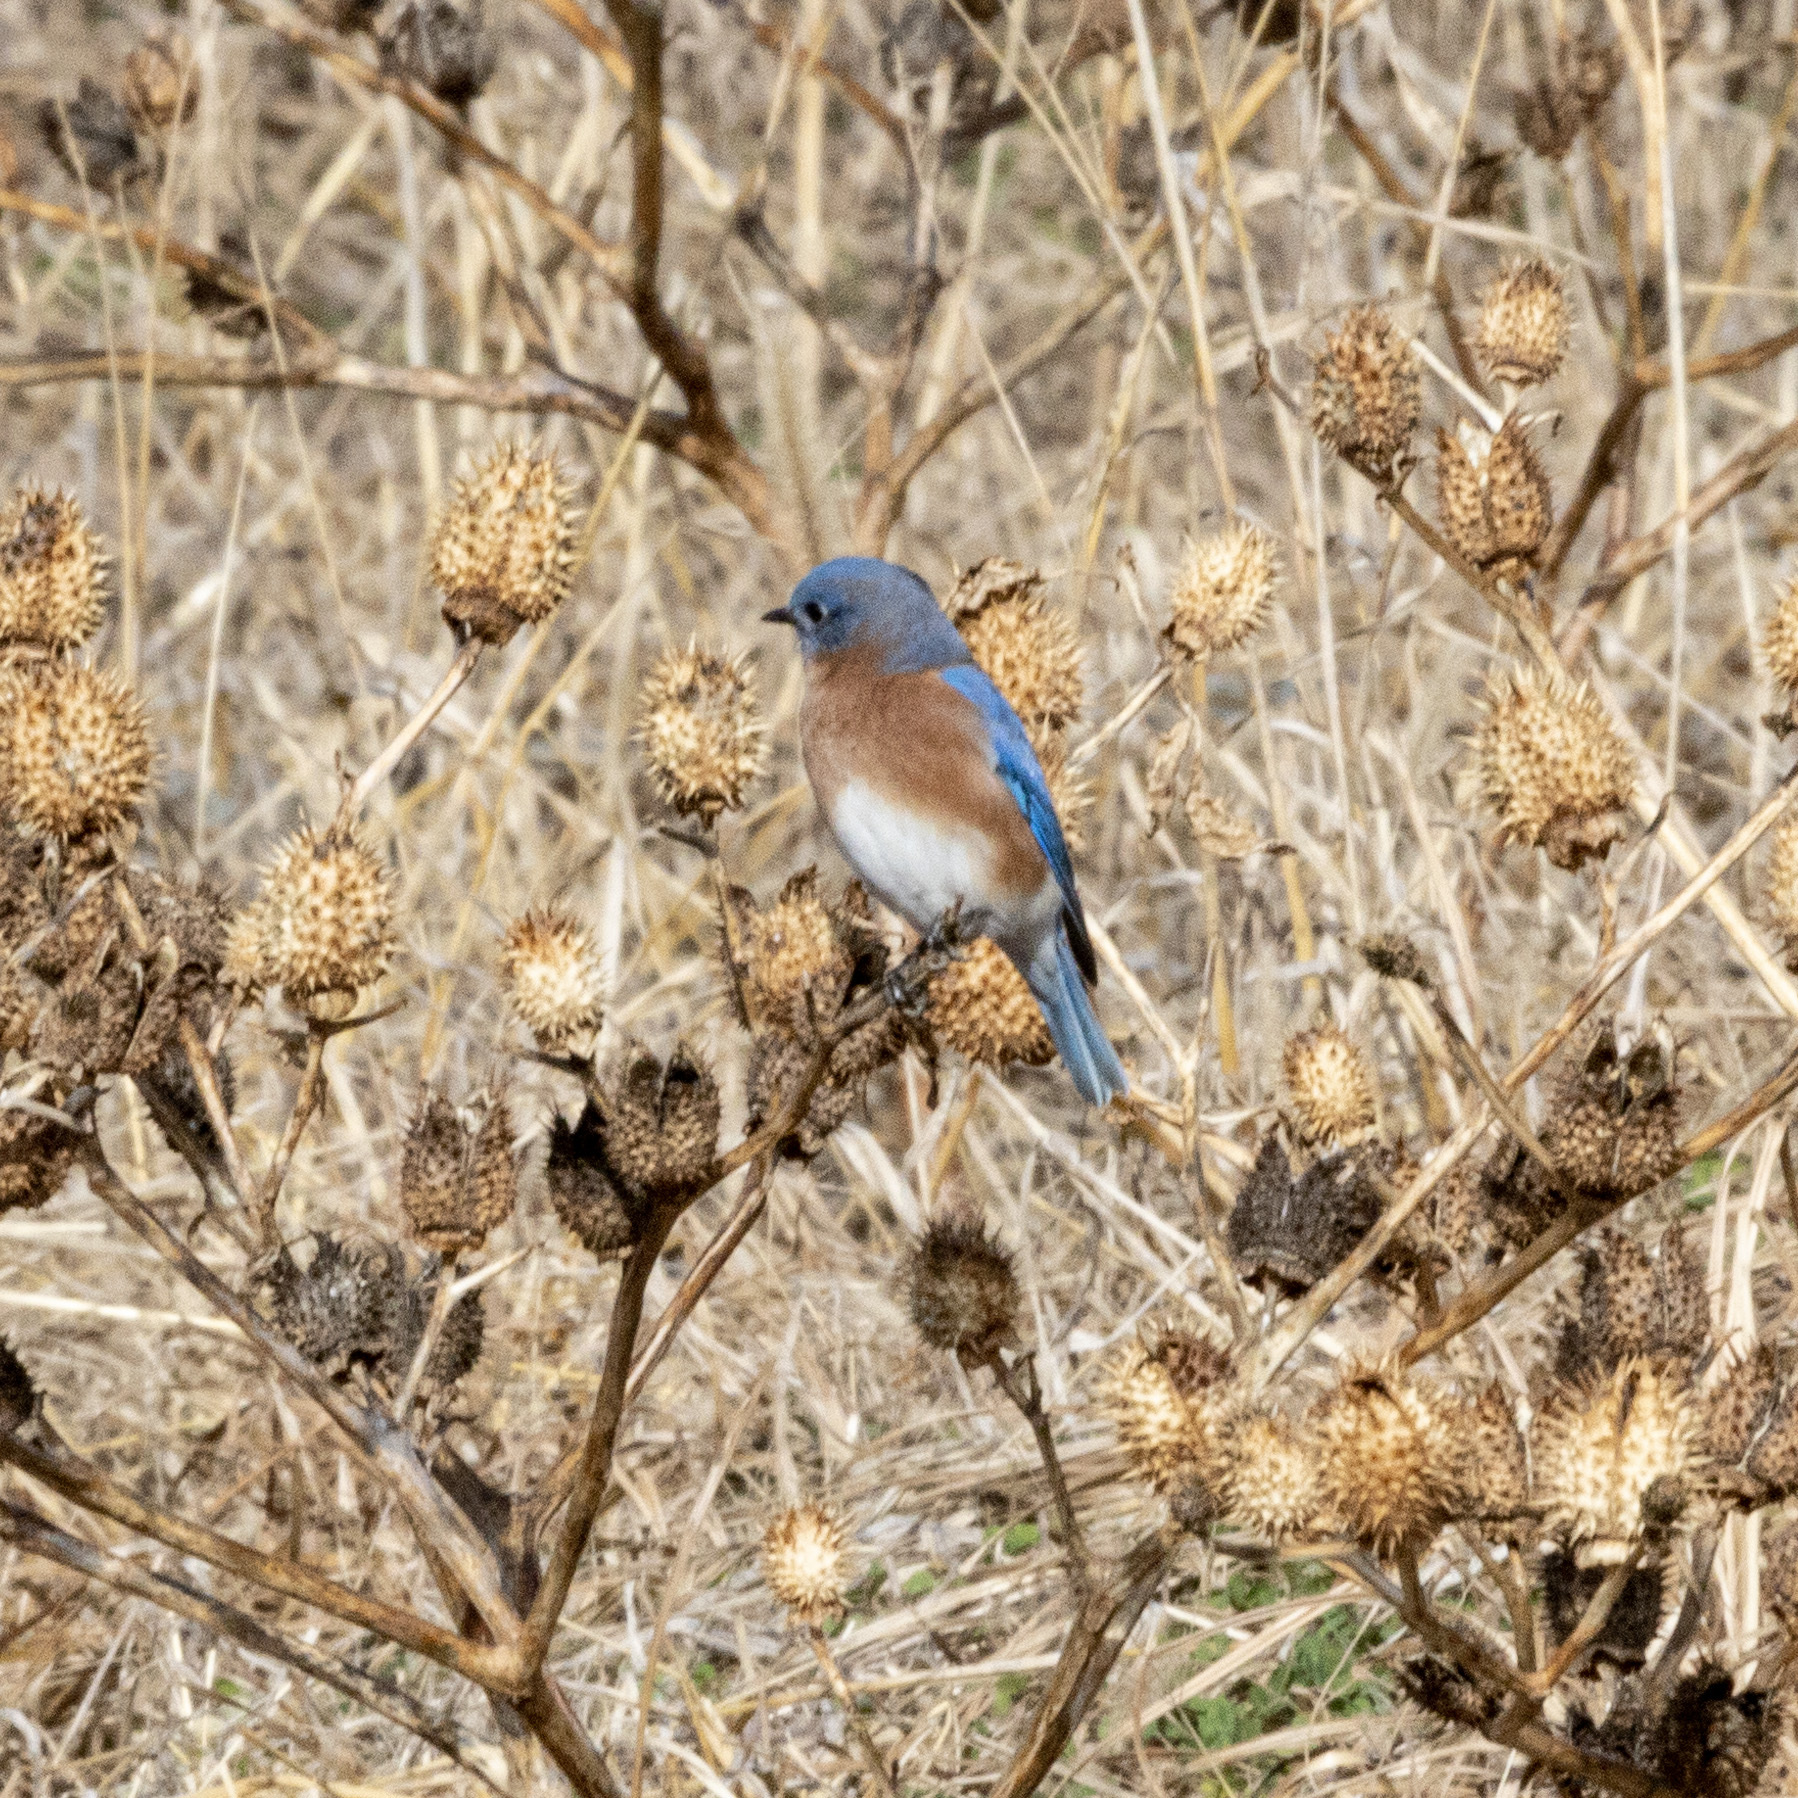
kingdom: Animalia
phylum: Chordata
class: Aves
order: Passeriformes
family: Turdidae
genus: Sialia
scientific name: Sialia sialis
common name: Eastern bluebird
